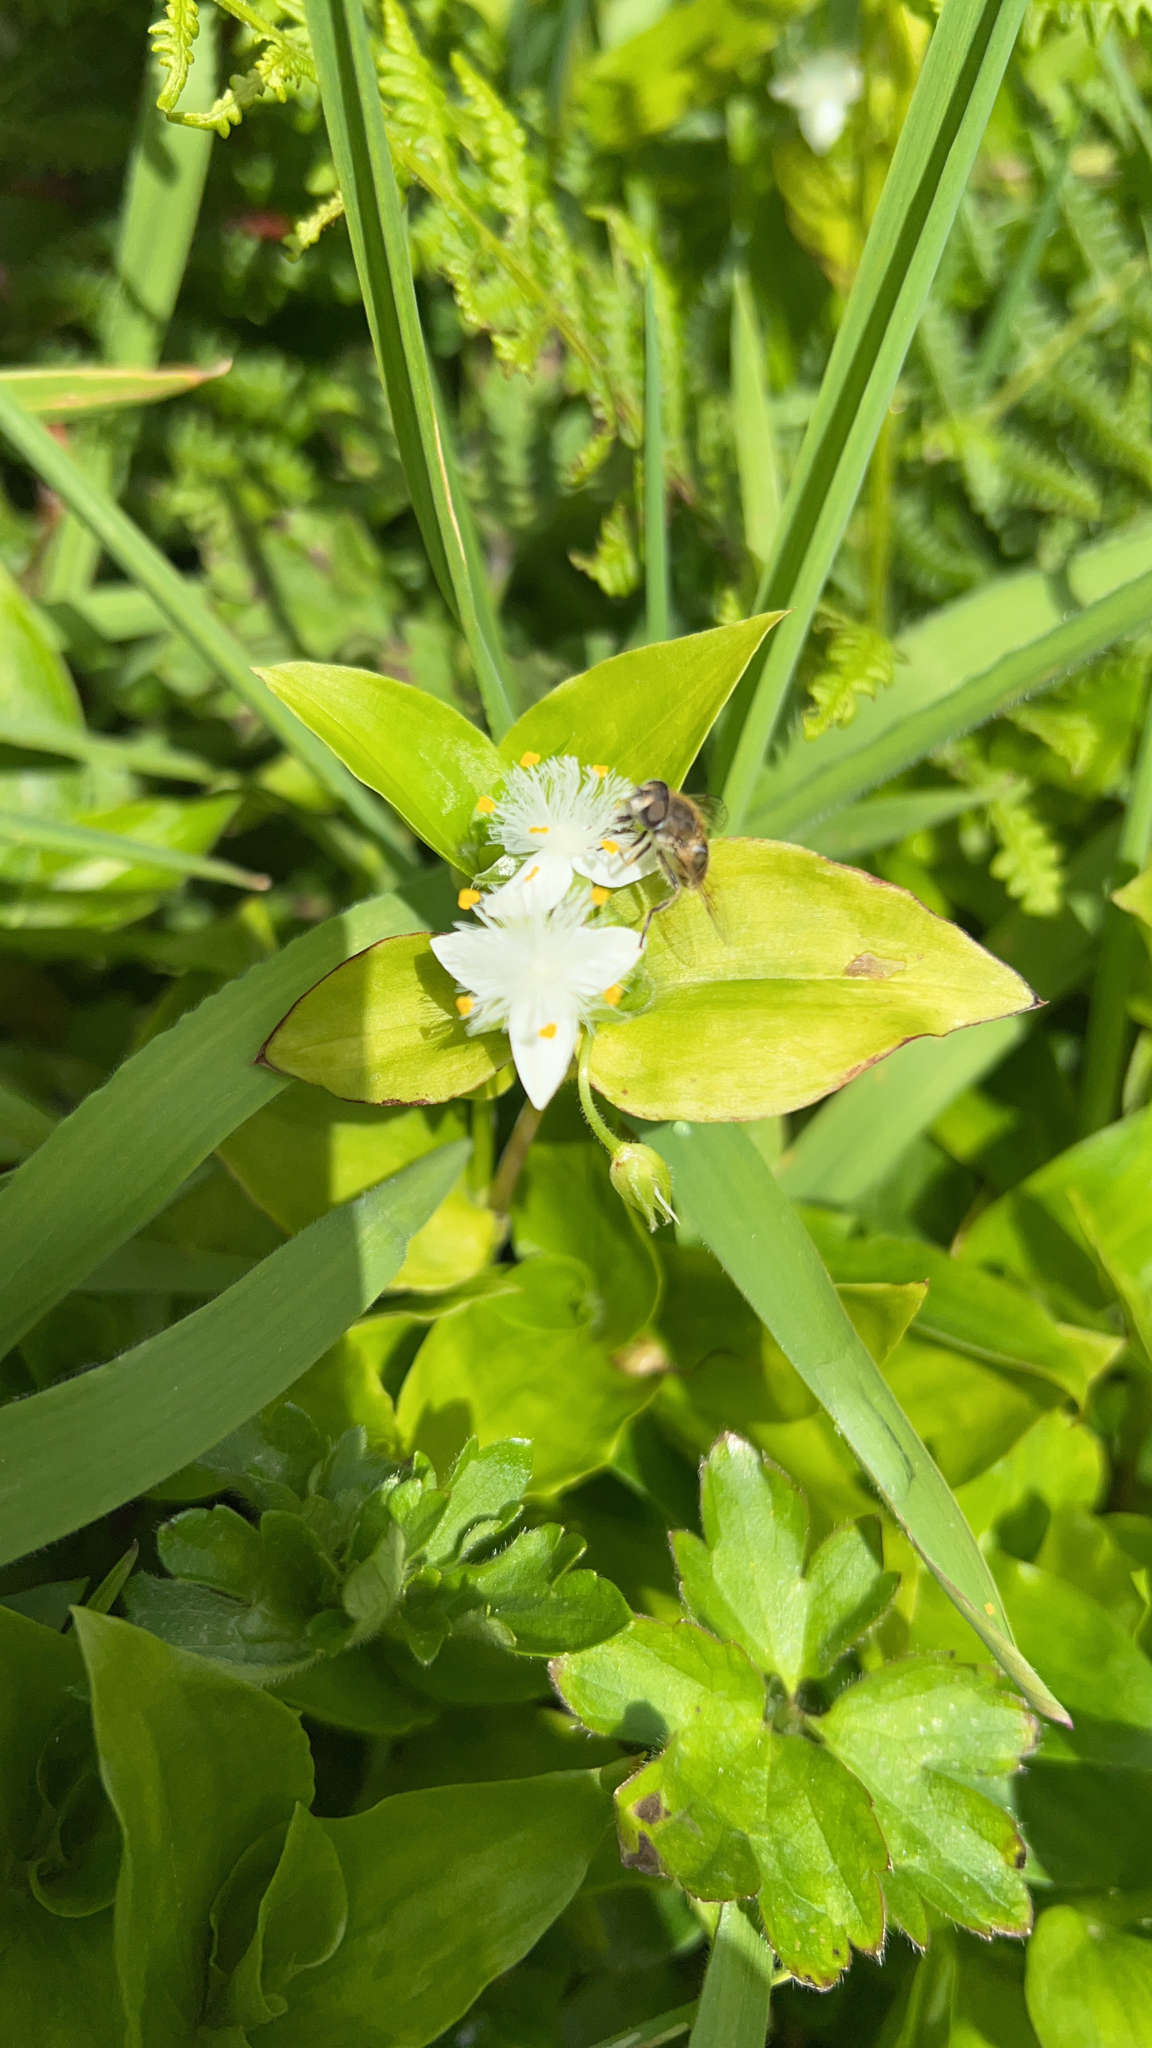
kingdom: Plantae
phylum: Tracheophyta
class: Liliopsida
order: Commelinales
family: Commelinaceae
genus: Tradescantia
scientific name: Tradescantia fluminensis
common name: Wandering-jew
